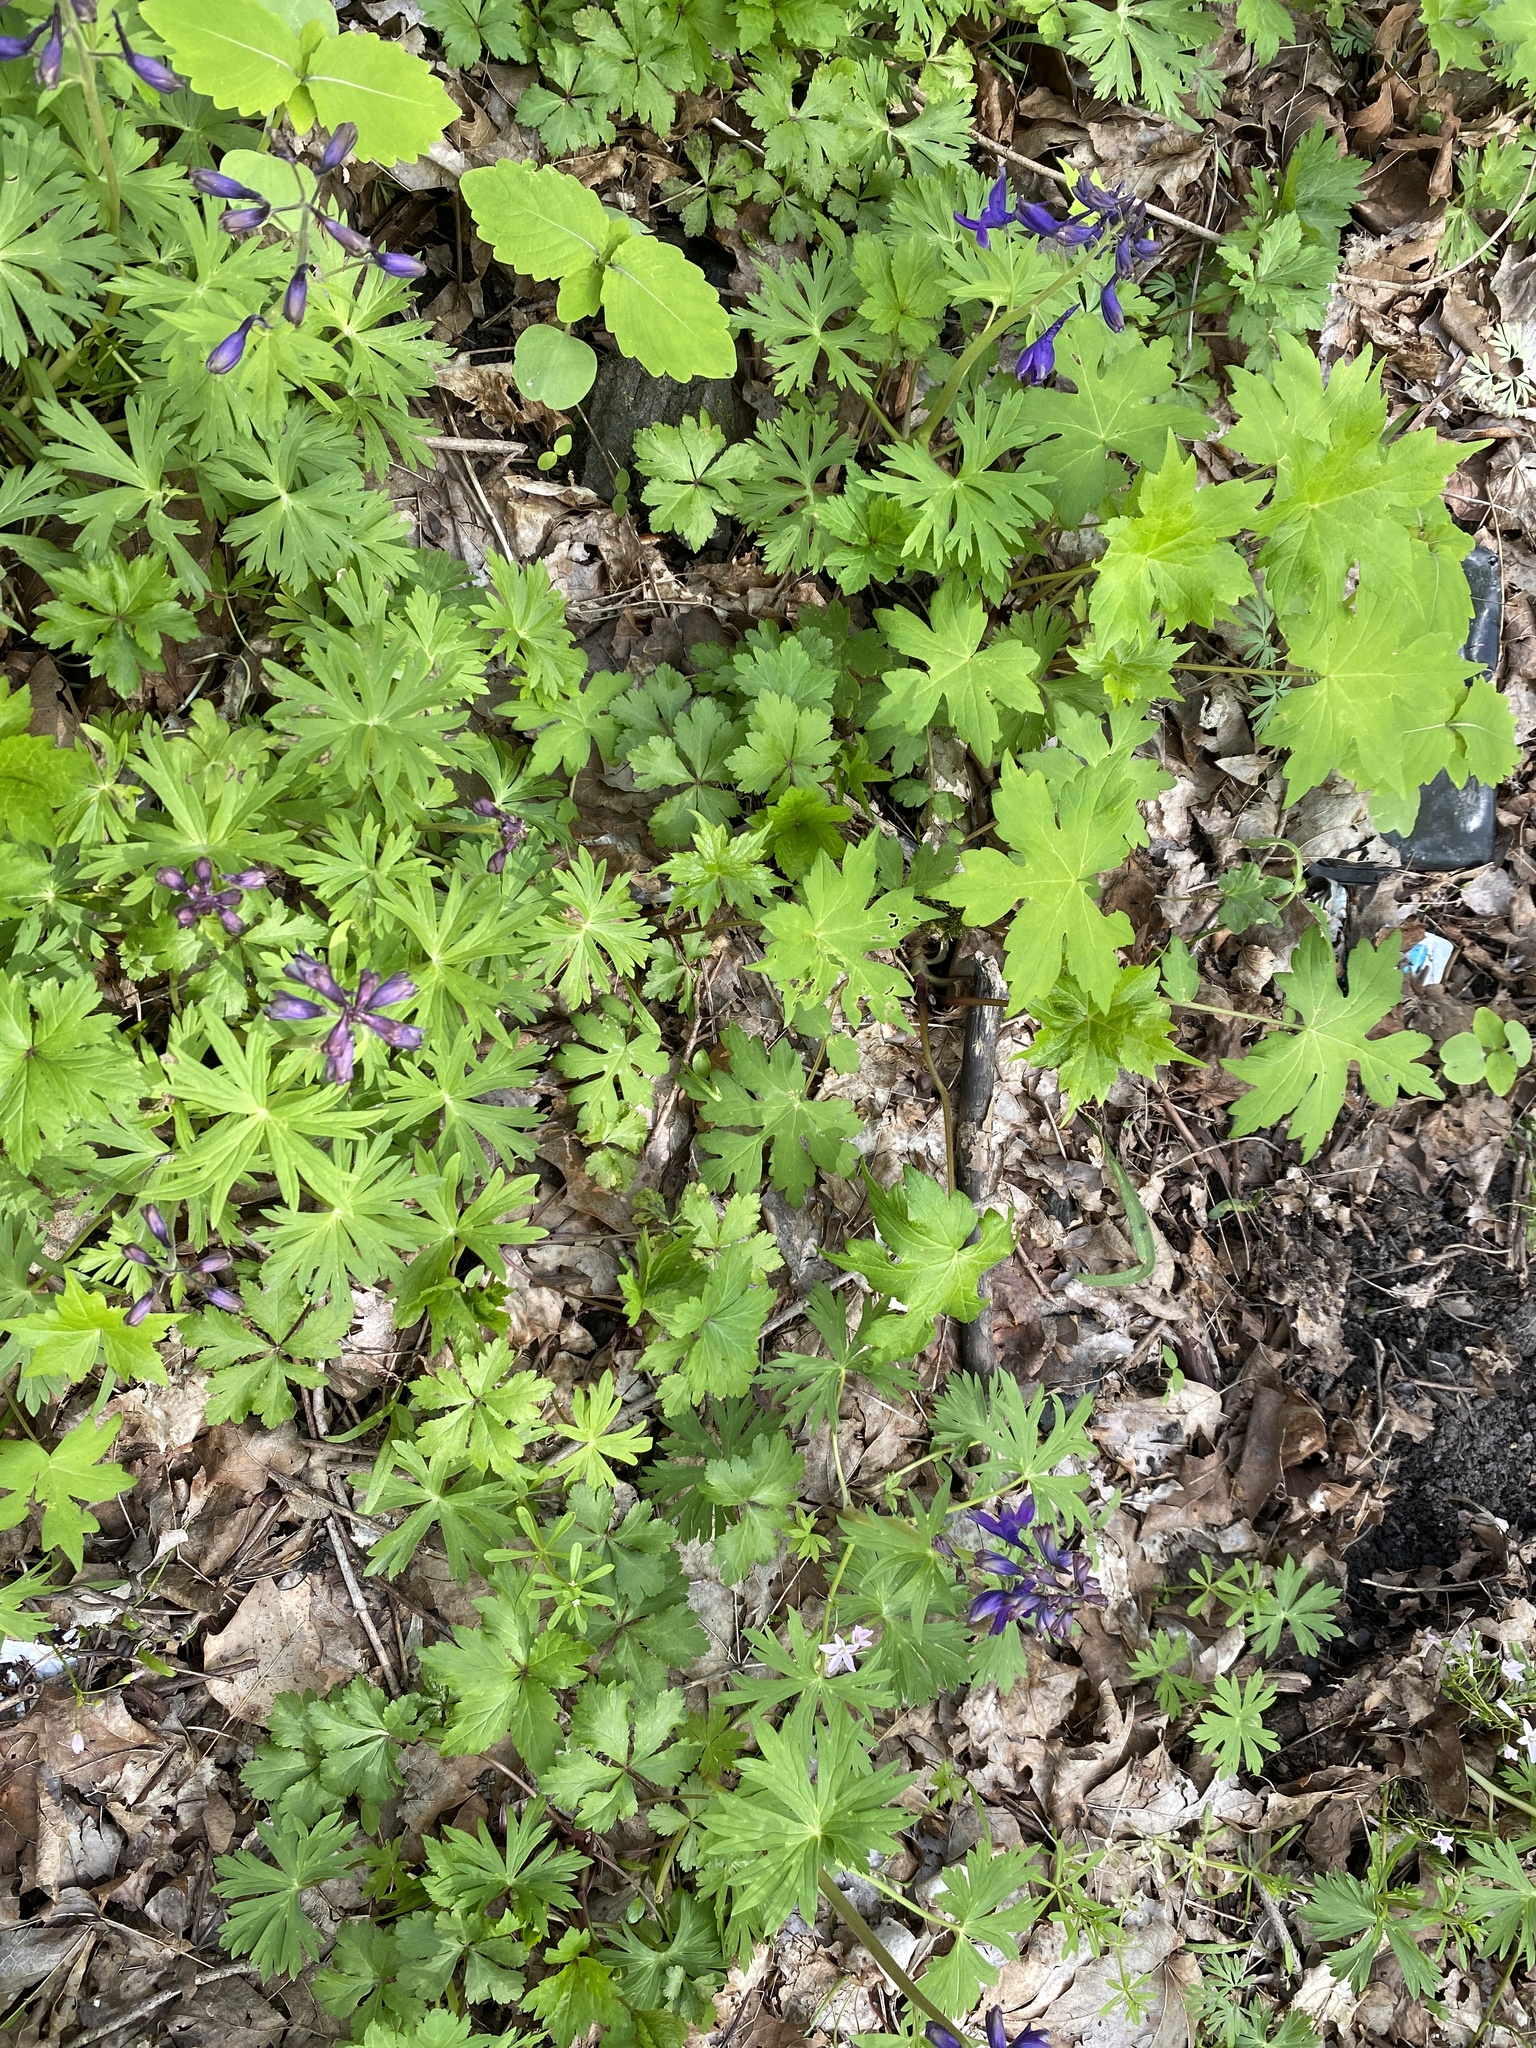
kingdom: Plantae
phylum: Tracheophyta
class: Magnoliopsida
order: Ranunculales
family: Ranunculaceae
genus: Delphinium
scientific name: Delphinium tricorne
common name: Dwarf larkspur
